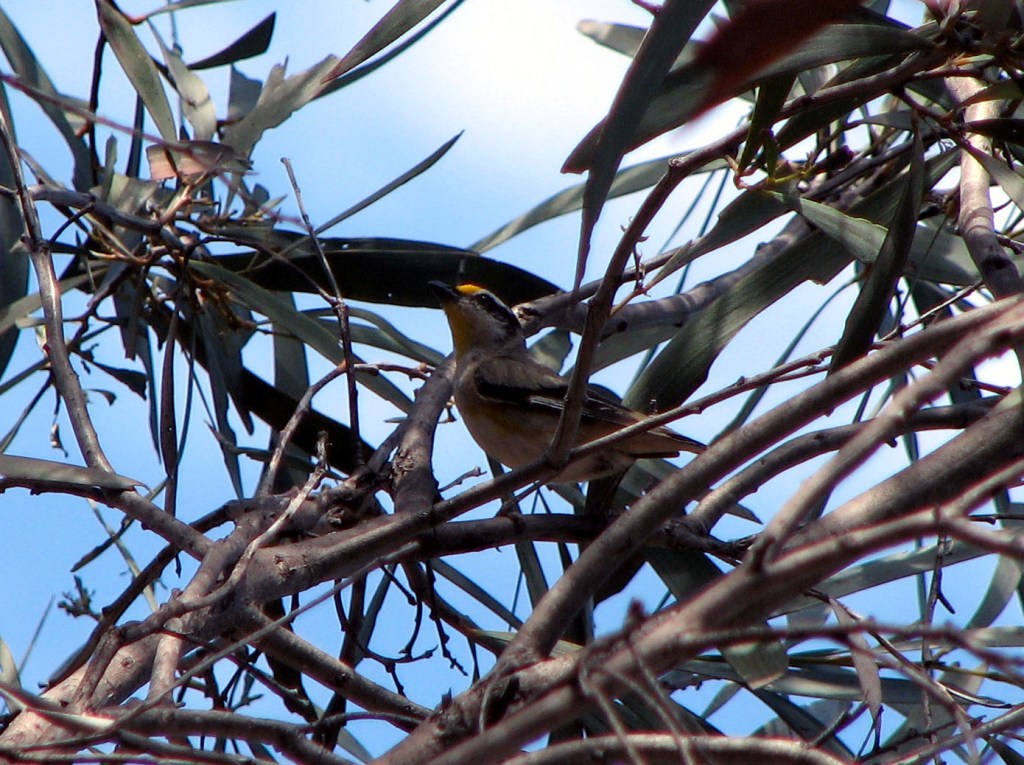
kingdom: Animalia
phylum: Chordata
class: Aves
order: Passeriformes
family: Pardalotidae
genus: Pardalotus
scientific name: Pardalotus striatus
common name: Striated pardalote
